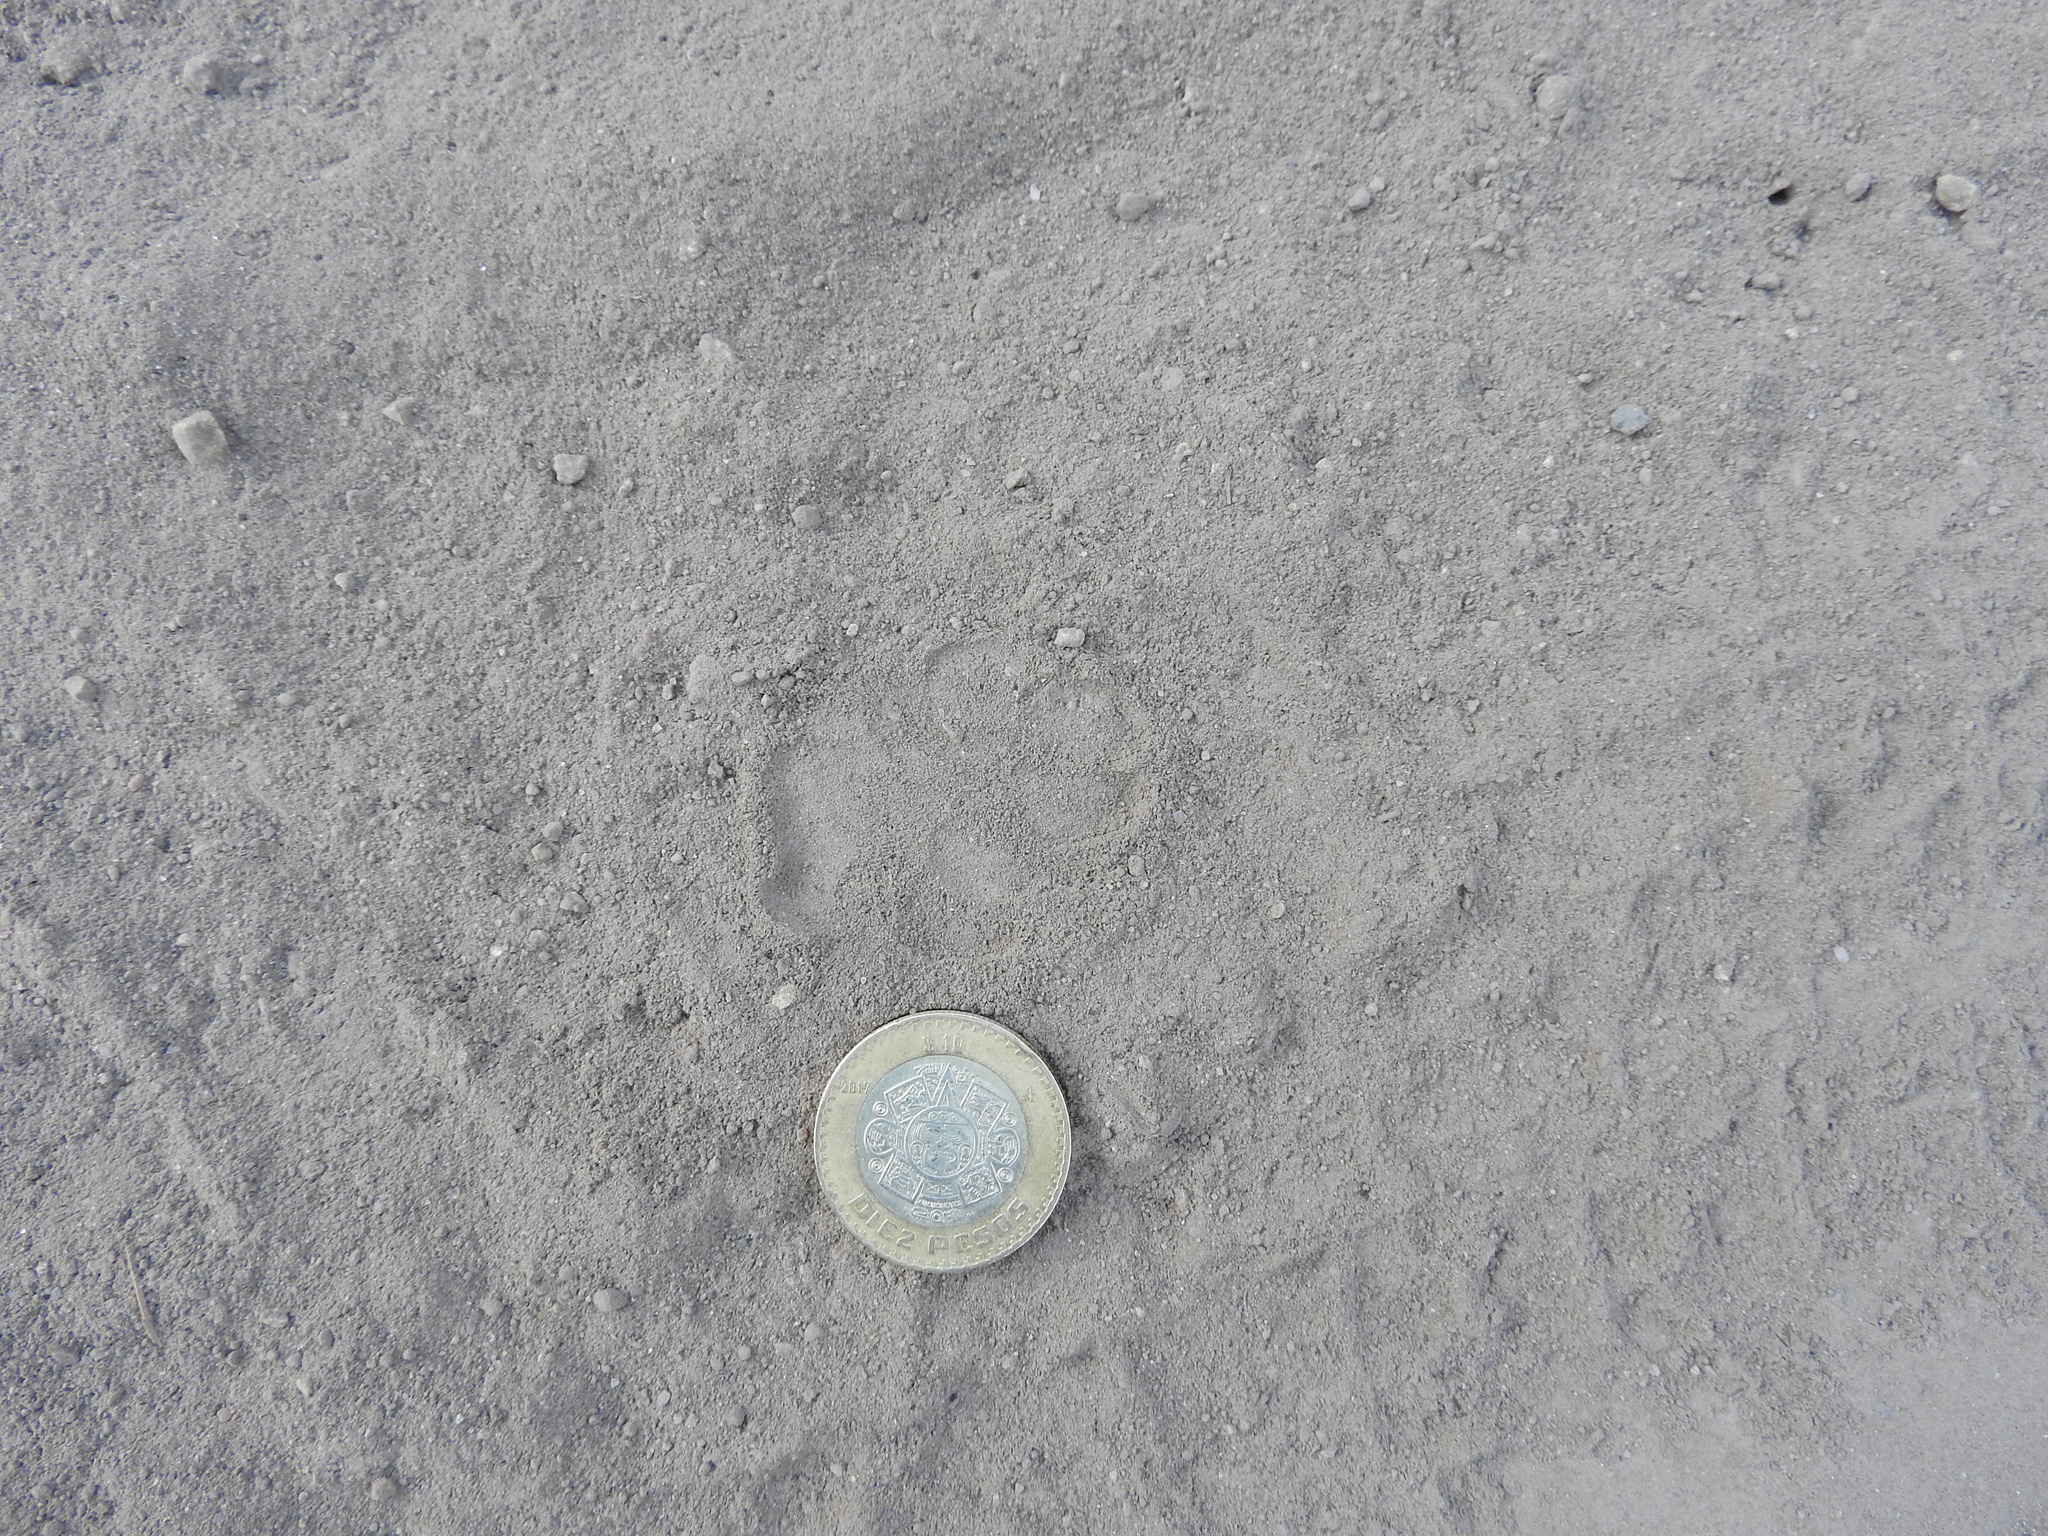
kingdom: Animalia
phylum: Chordata
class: Mammalia
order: Carnivora
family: Canidae
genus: Urocyon
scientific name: Urocyon cinereoargenteus
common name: Gray fox
